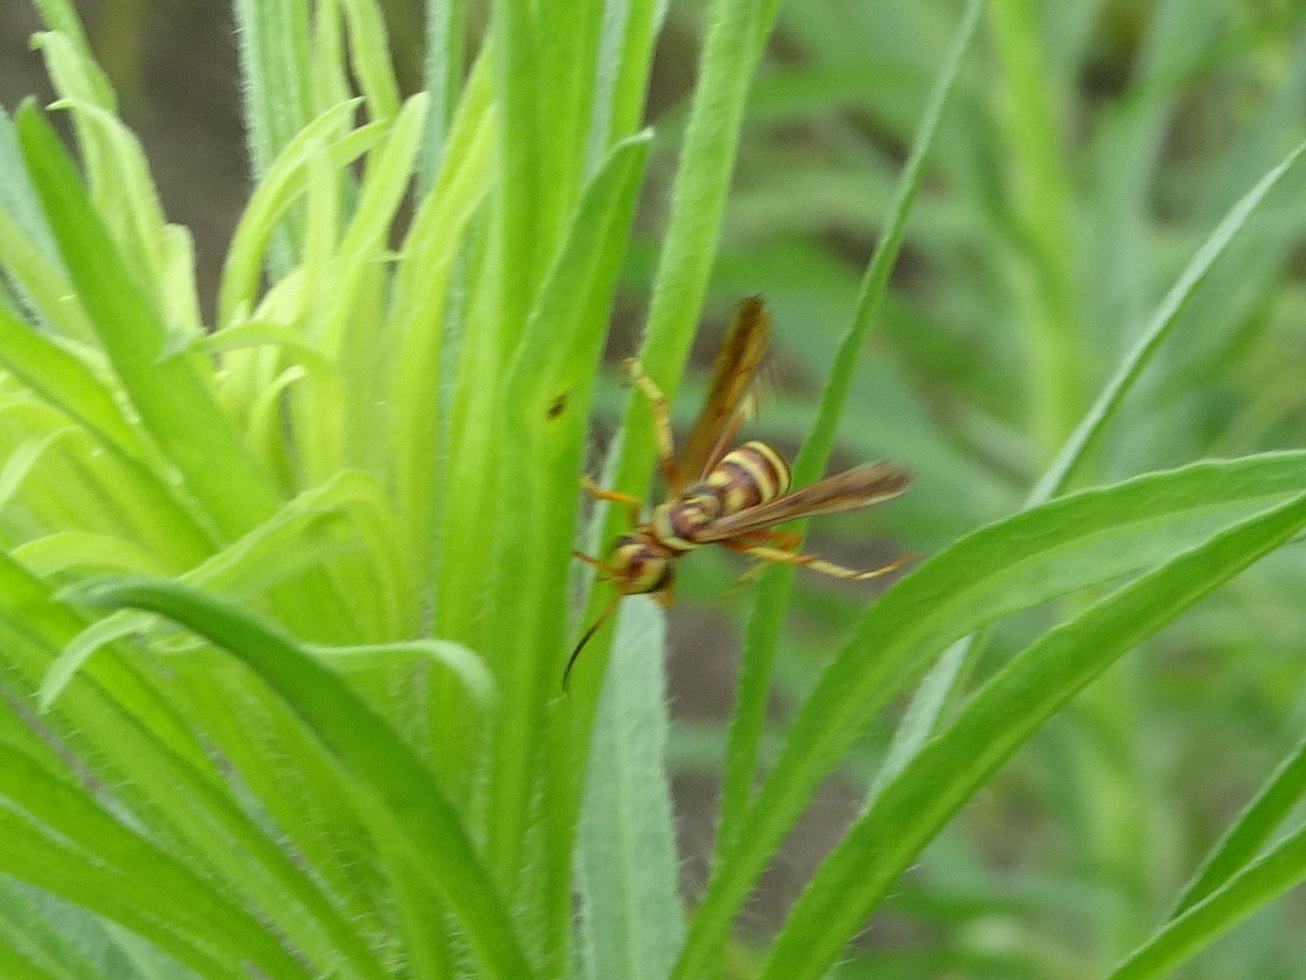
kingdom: Animalia
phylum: Arthropoda
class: Insecta
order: Hymenoptera
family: Pompilidae
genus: Poecilopompilus
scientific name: Poecilopompilus interruptus
